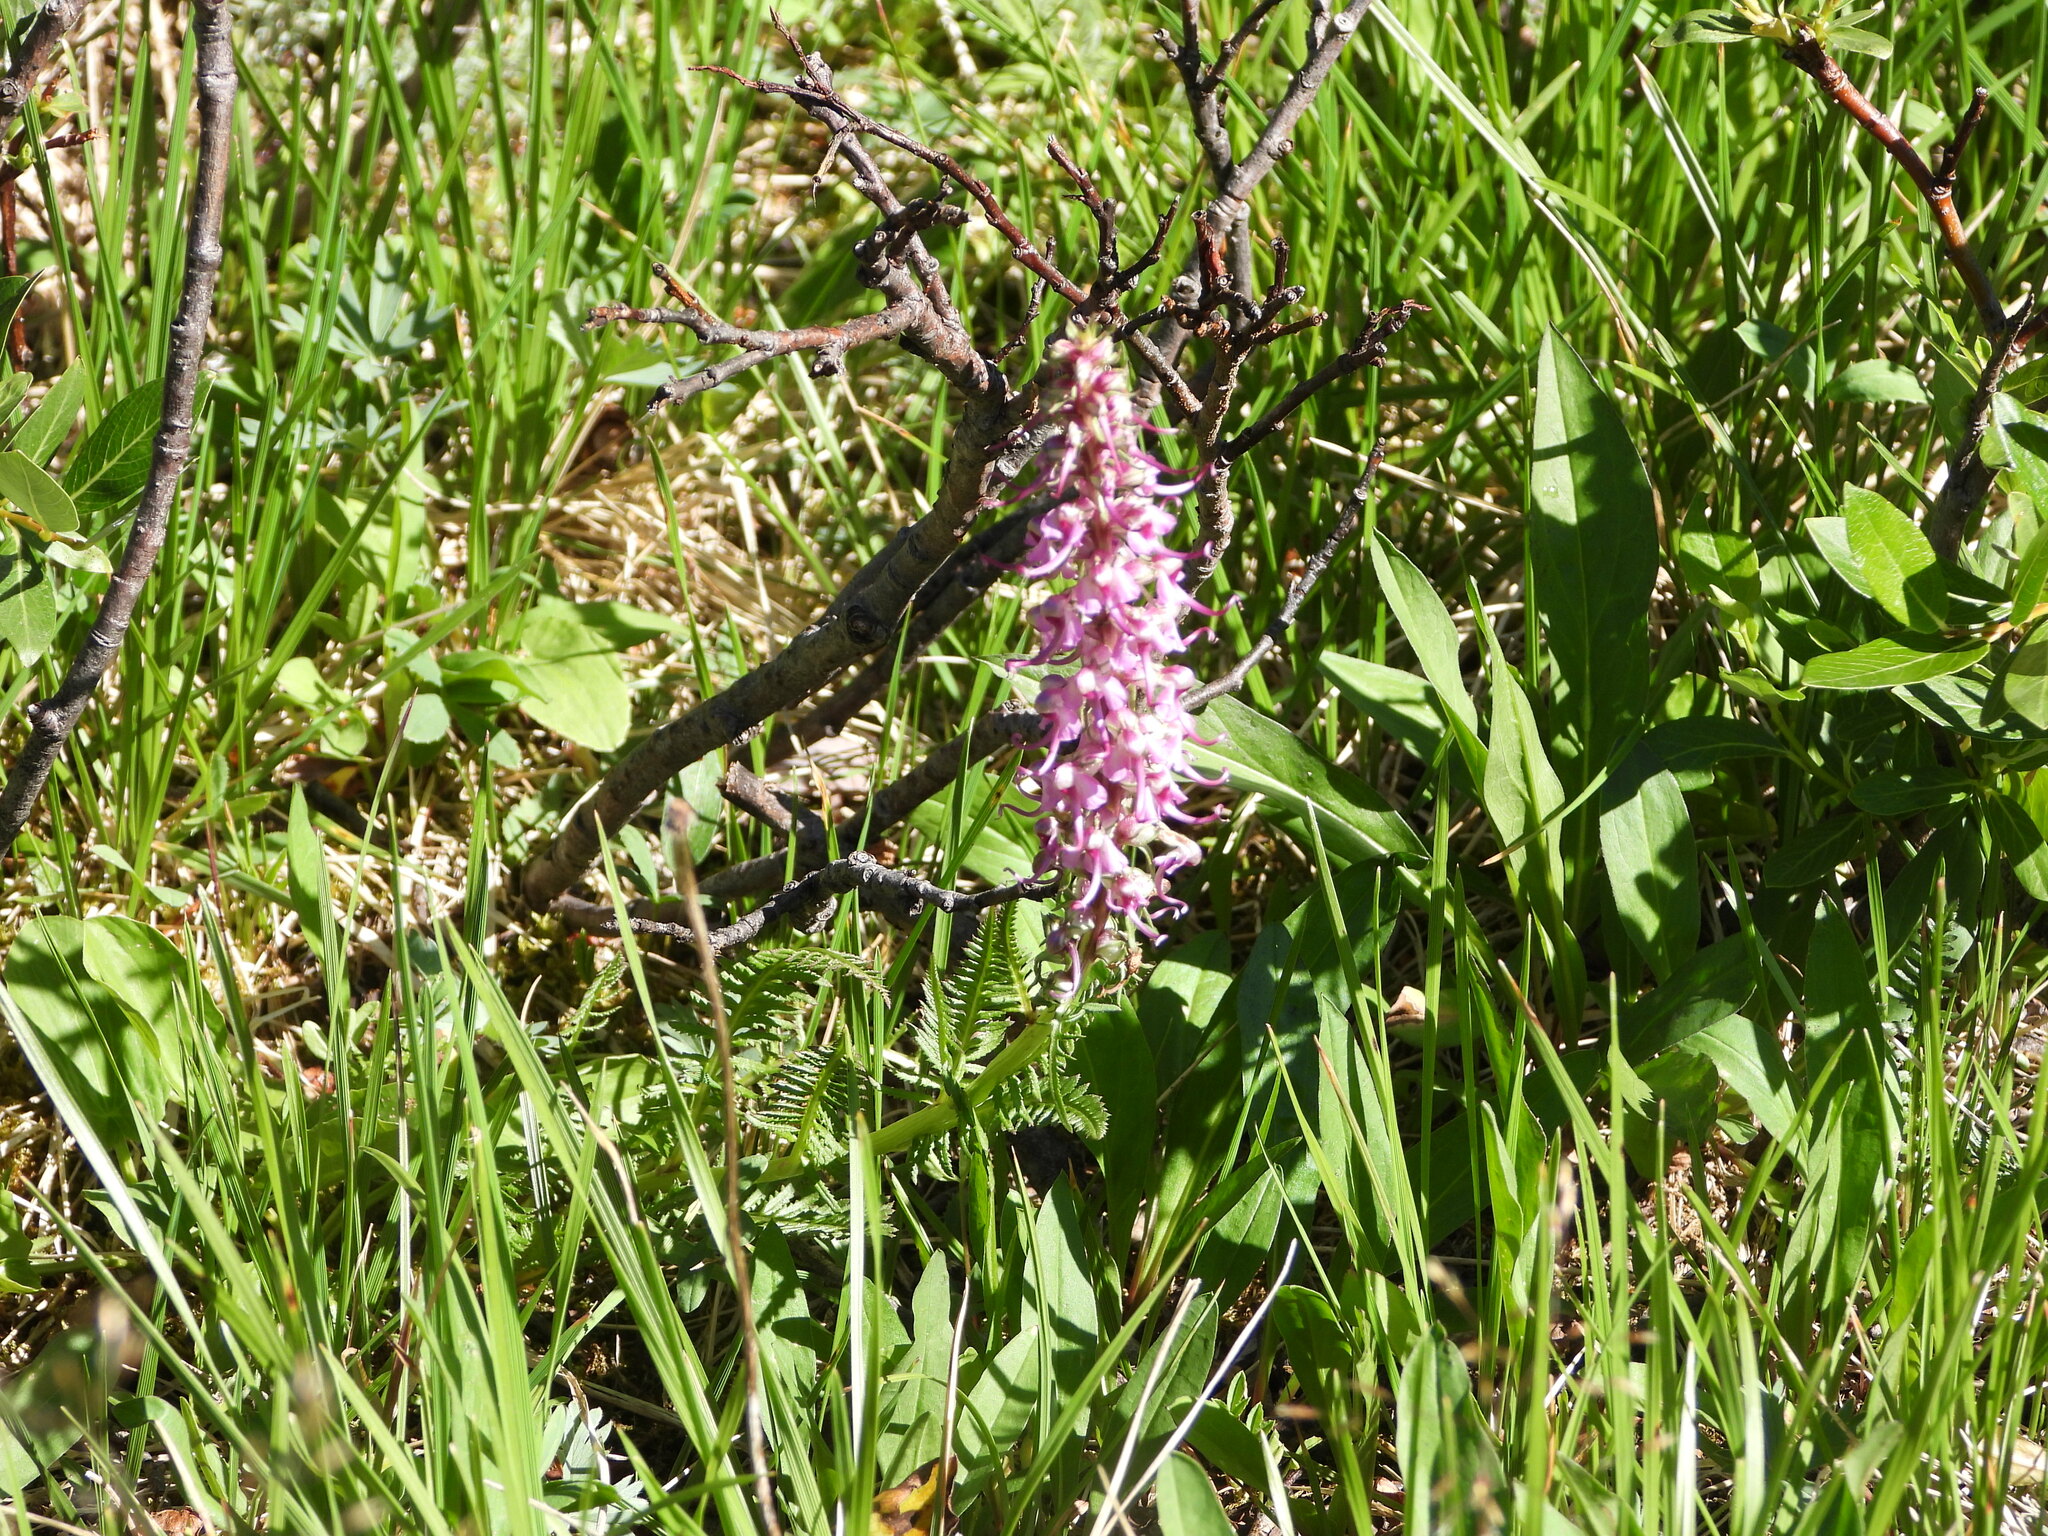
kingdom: Plantae
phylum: Tracheophyta
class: Magnoliopsida
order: Lamiales
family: Orobanchaceae
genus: Pedicularis
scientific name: Pedicularis groenlandica
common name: Elephant's-head
